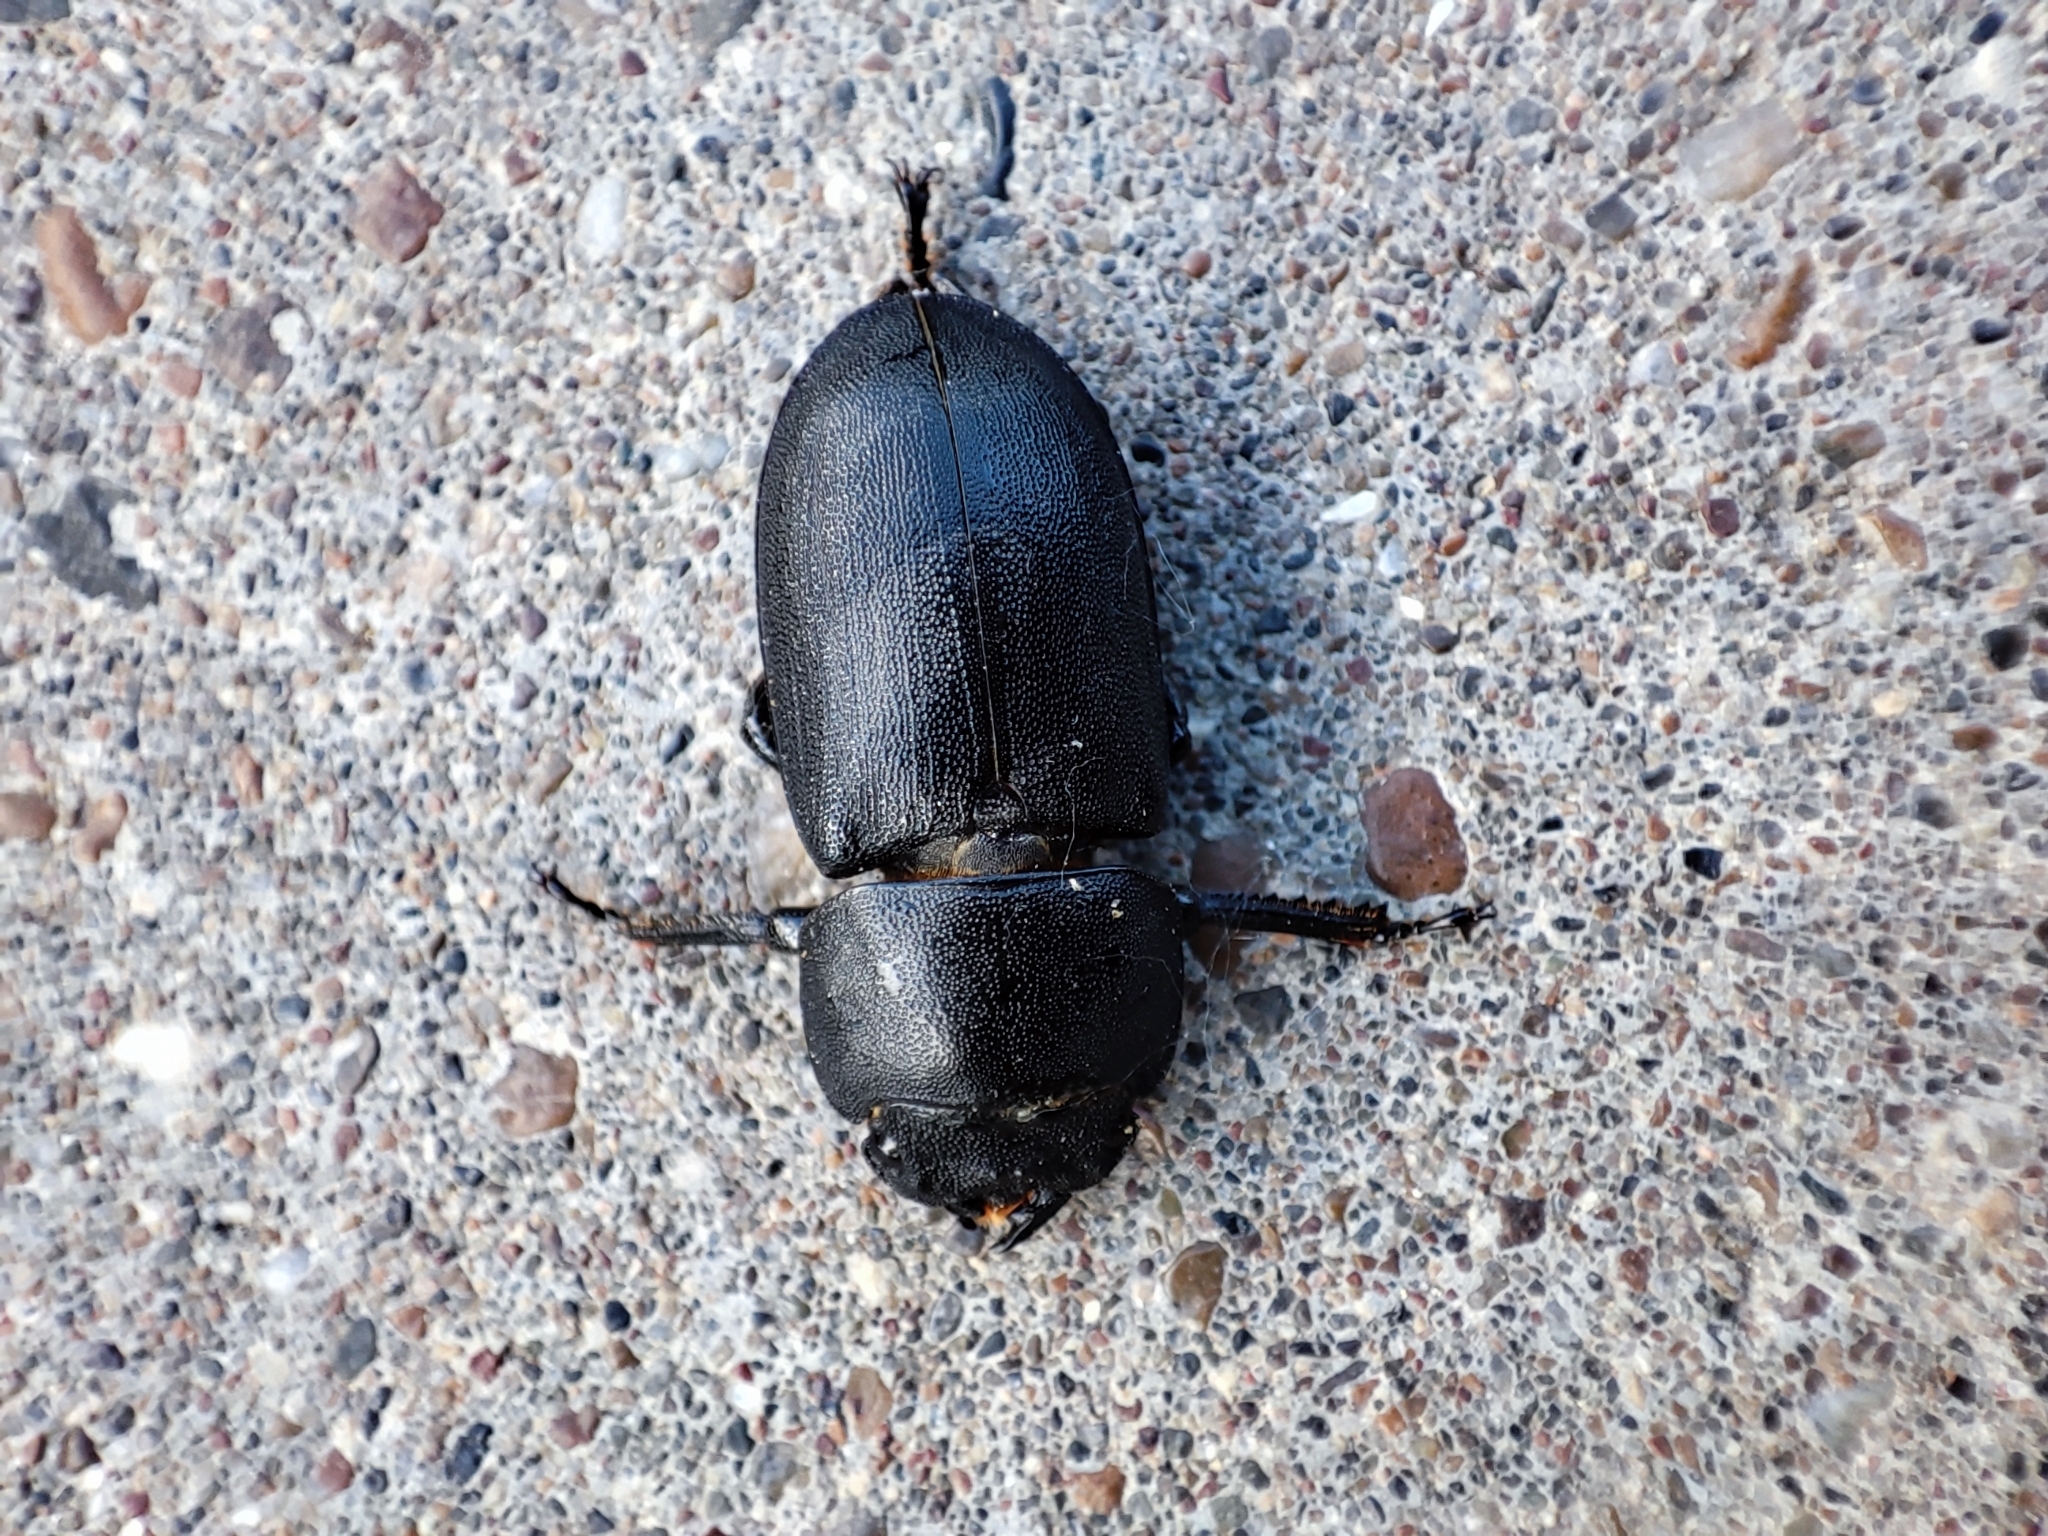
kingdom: Animalia
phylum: Arthropoda
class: Insecta
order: Coleoptera
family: Lucanidae
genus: Dorcus
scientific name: Dorcus parallelipipedus
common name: Lesser stag beetle
